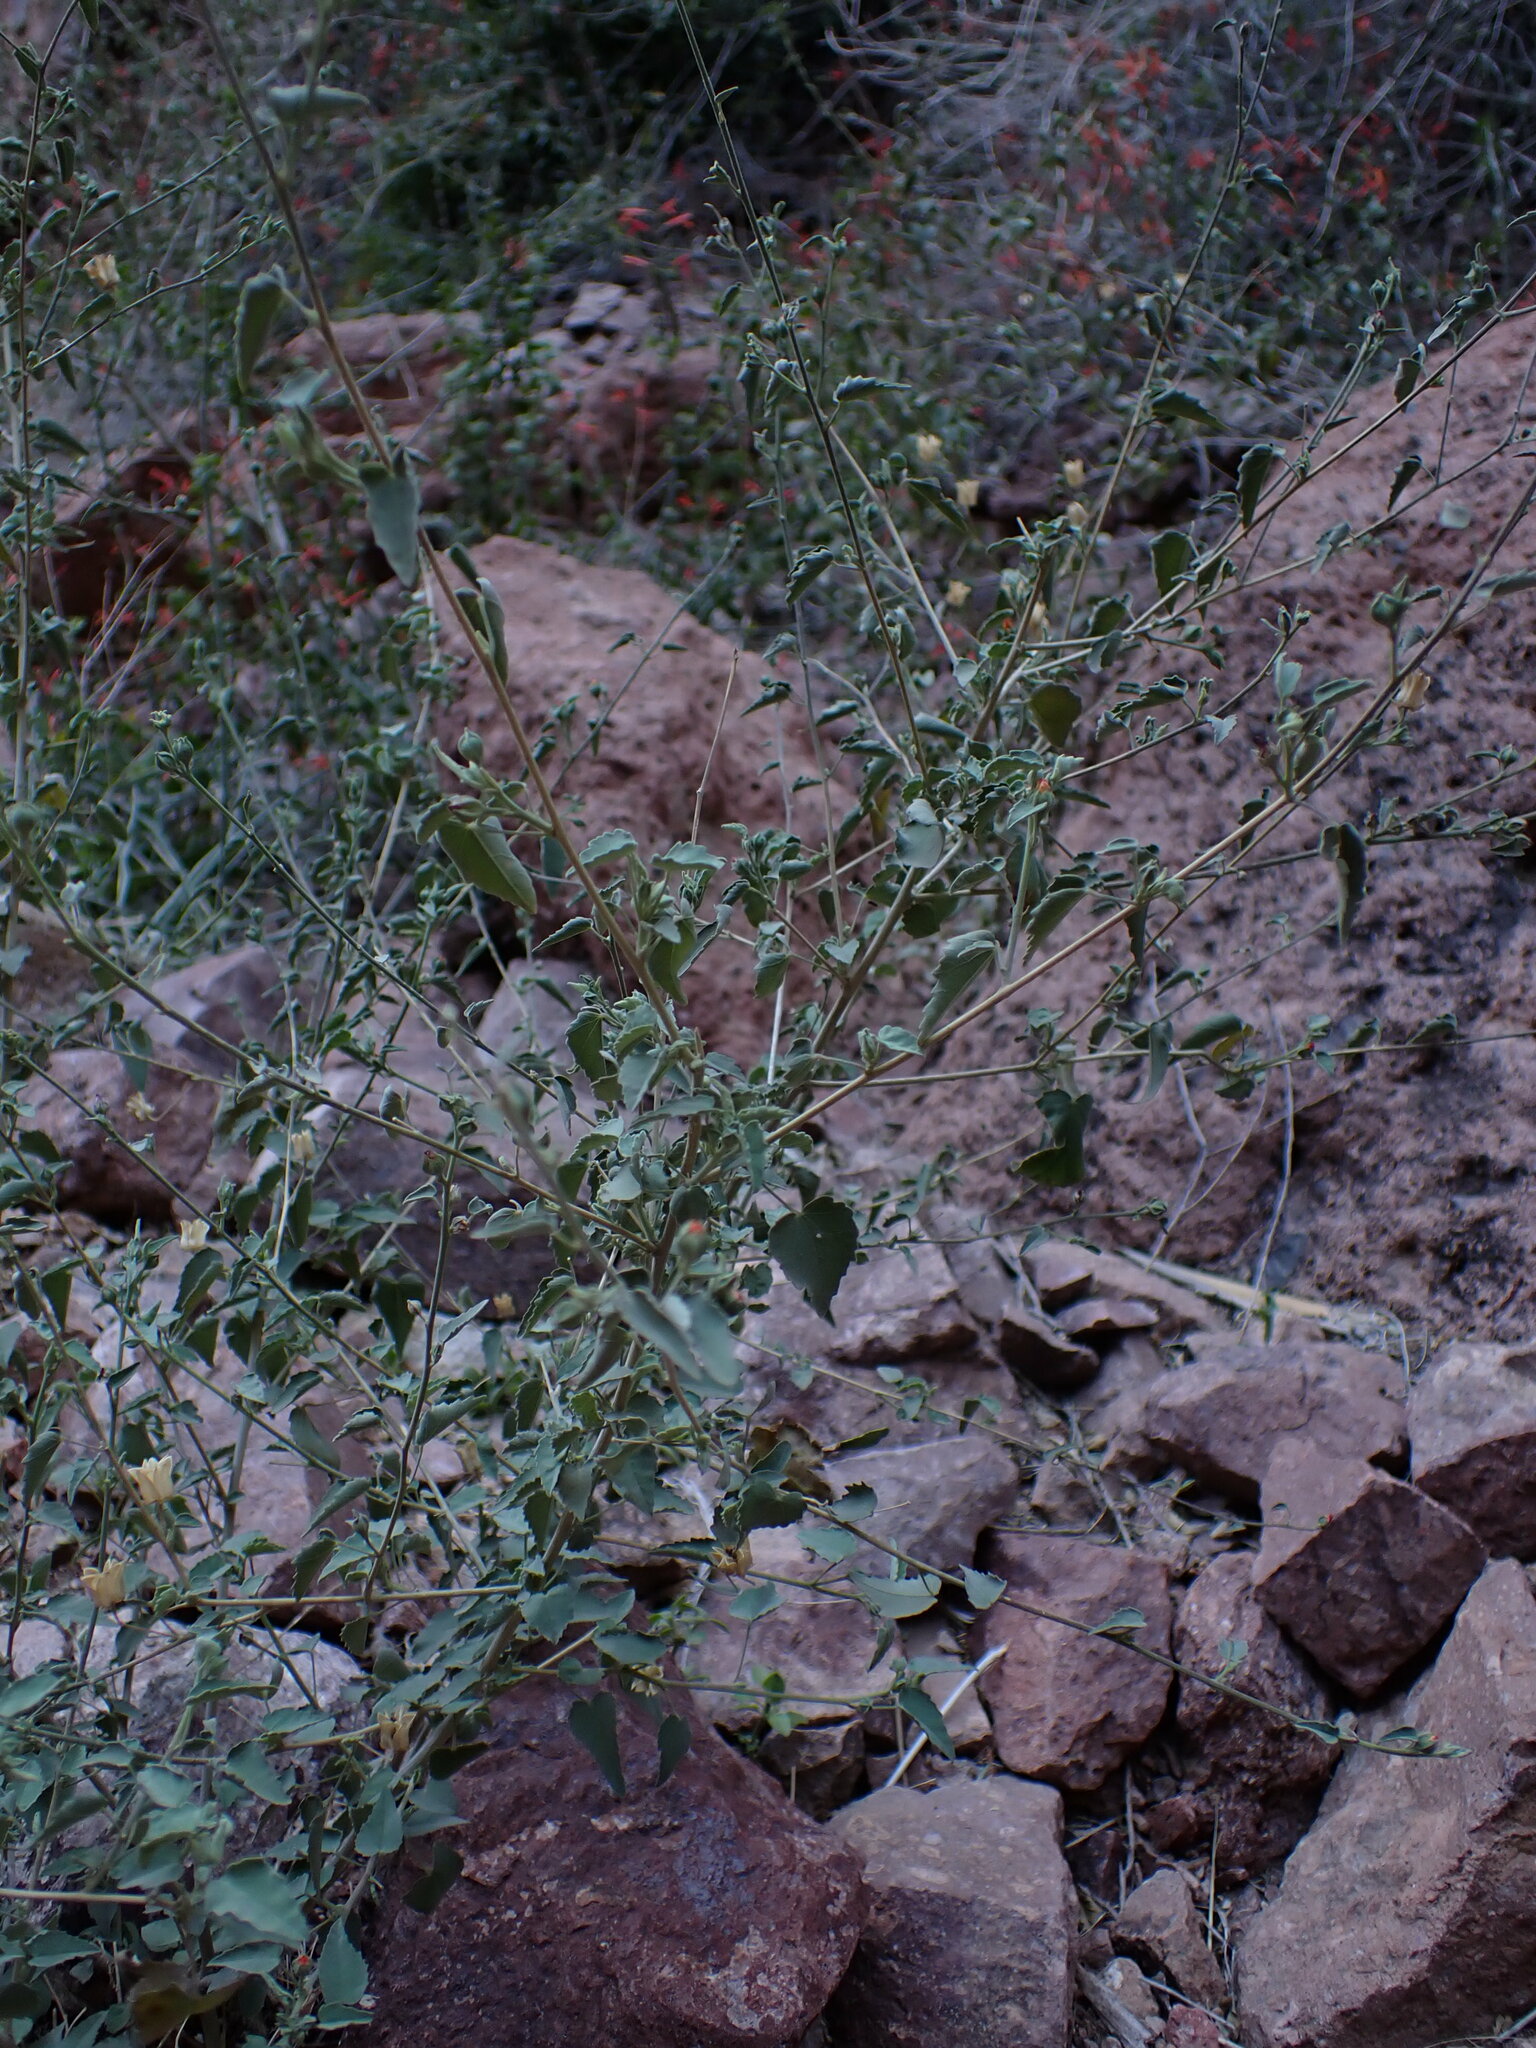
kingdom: Plantae
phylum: Tracheophyta
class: Magnoliopsida
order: Malvales
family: Malvaceae
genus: Abutilon
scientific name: Abutilon incanum
